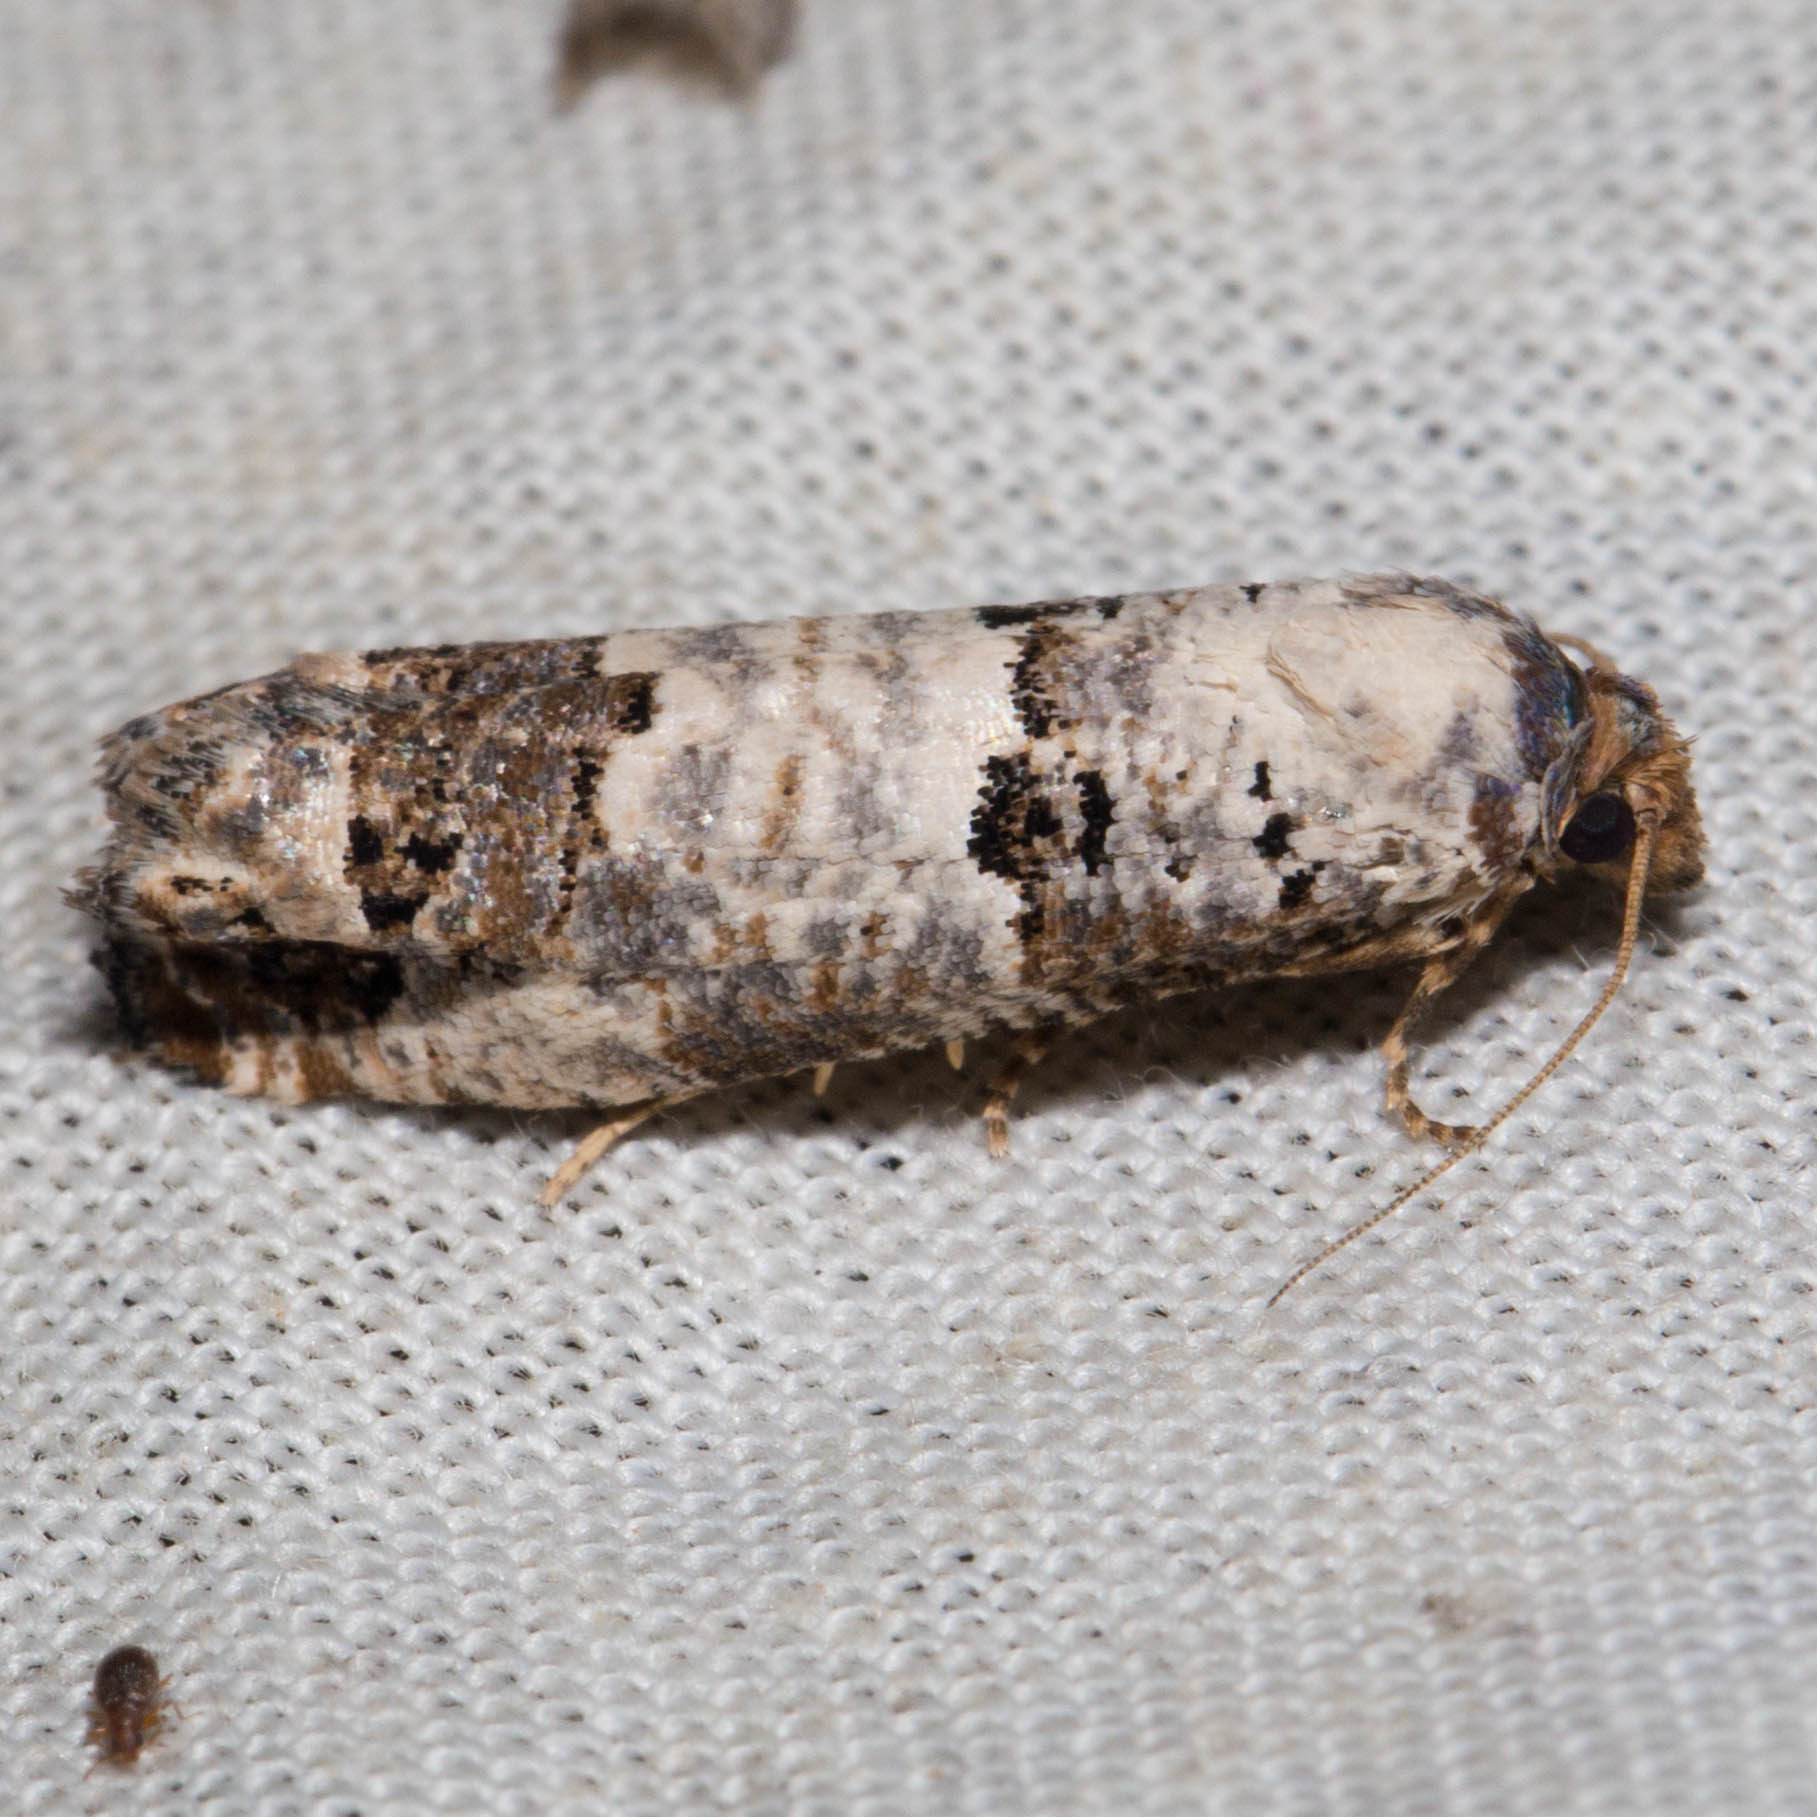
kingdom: Animalia
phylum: Arthropoda
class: Insecta
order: Lepidoptera
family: Tortricidae
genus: Pelochrista
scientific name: Pelochrista eburata
